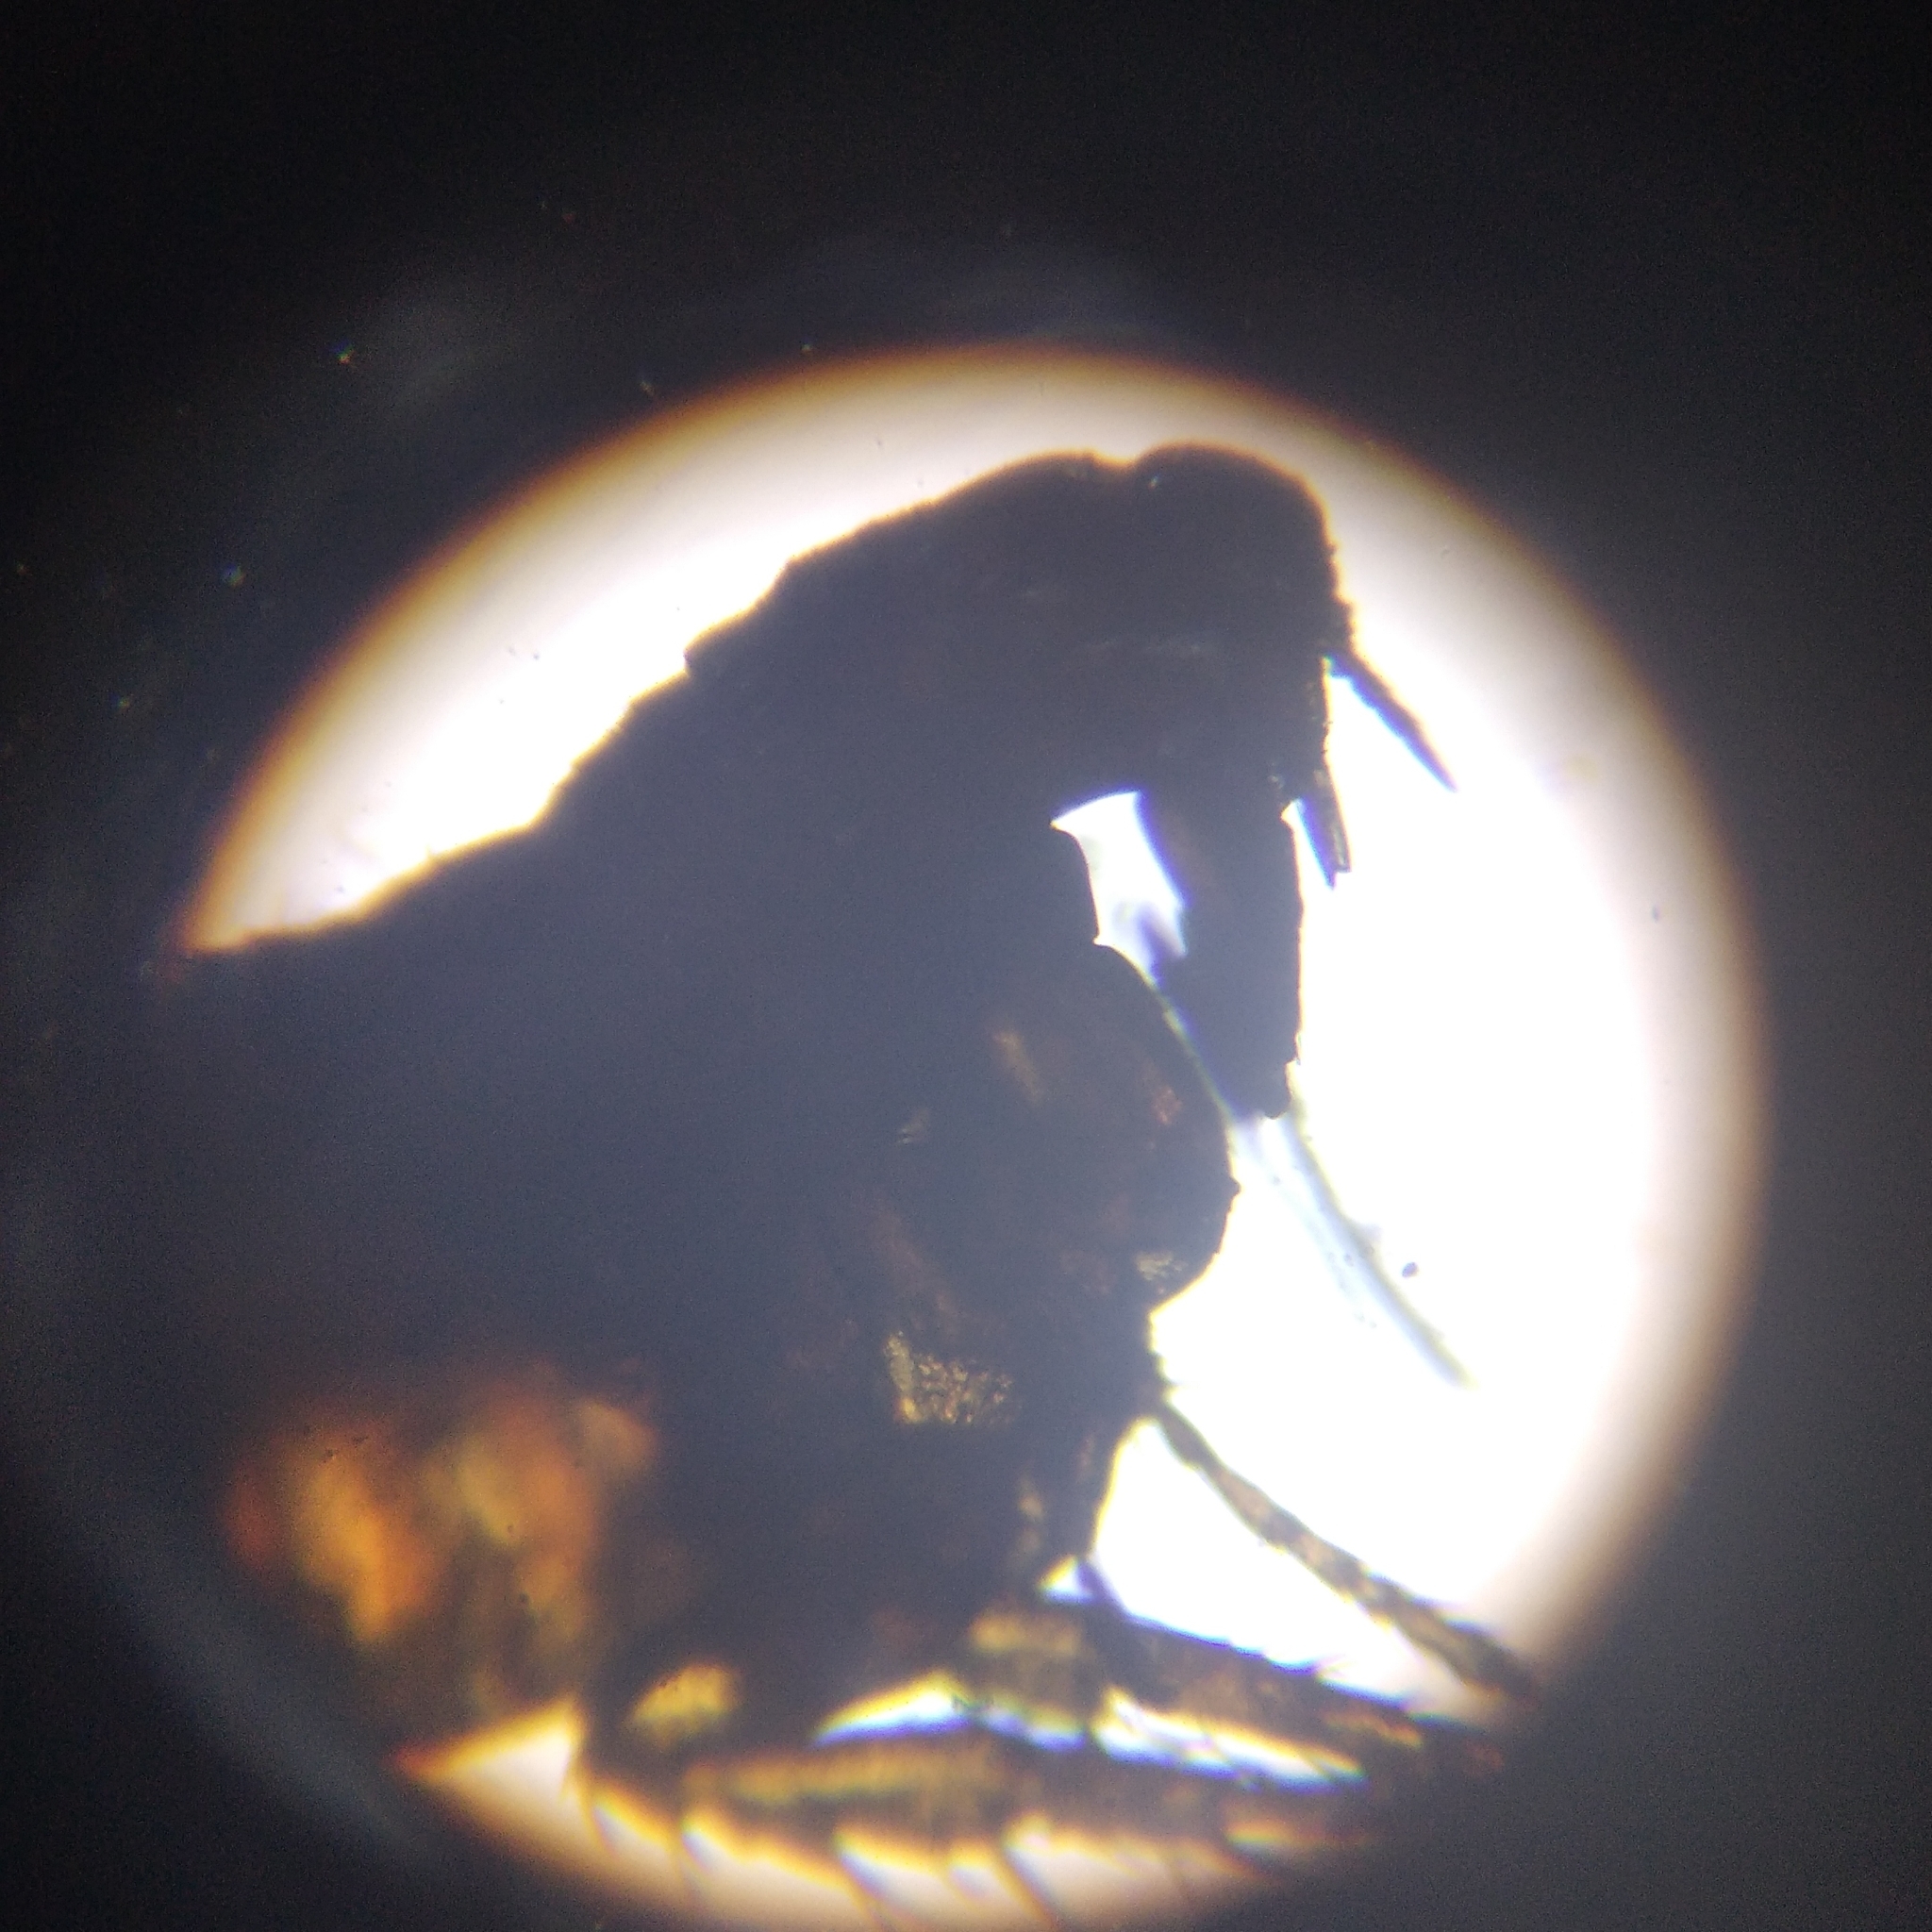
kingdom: Animalia
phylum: Arthropoda
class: Insecta
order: Siphonaptera
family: Pulicidae
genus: Ctenocephalides
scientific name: Ctenocephalides felis
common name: Cat flea
